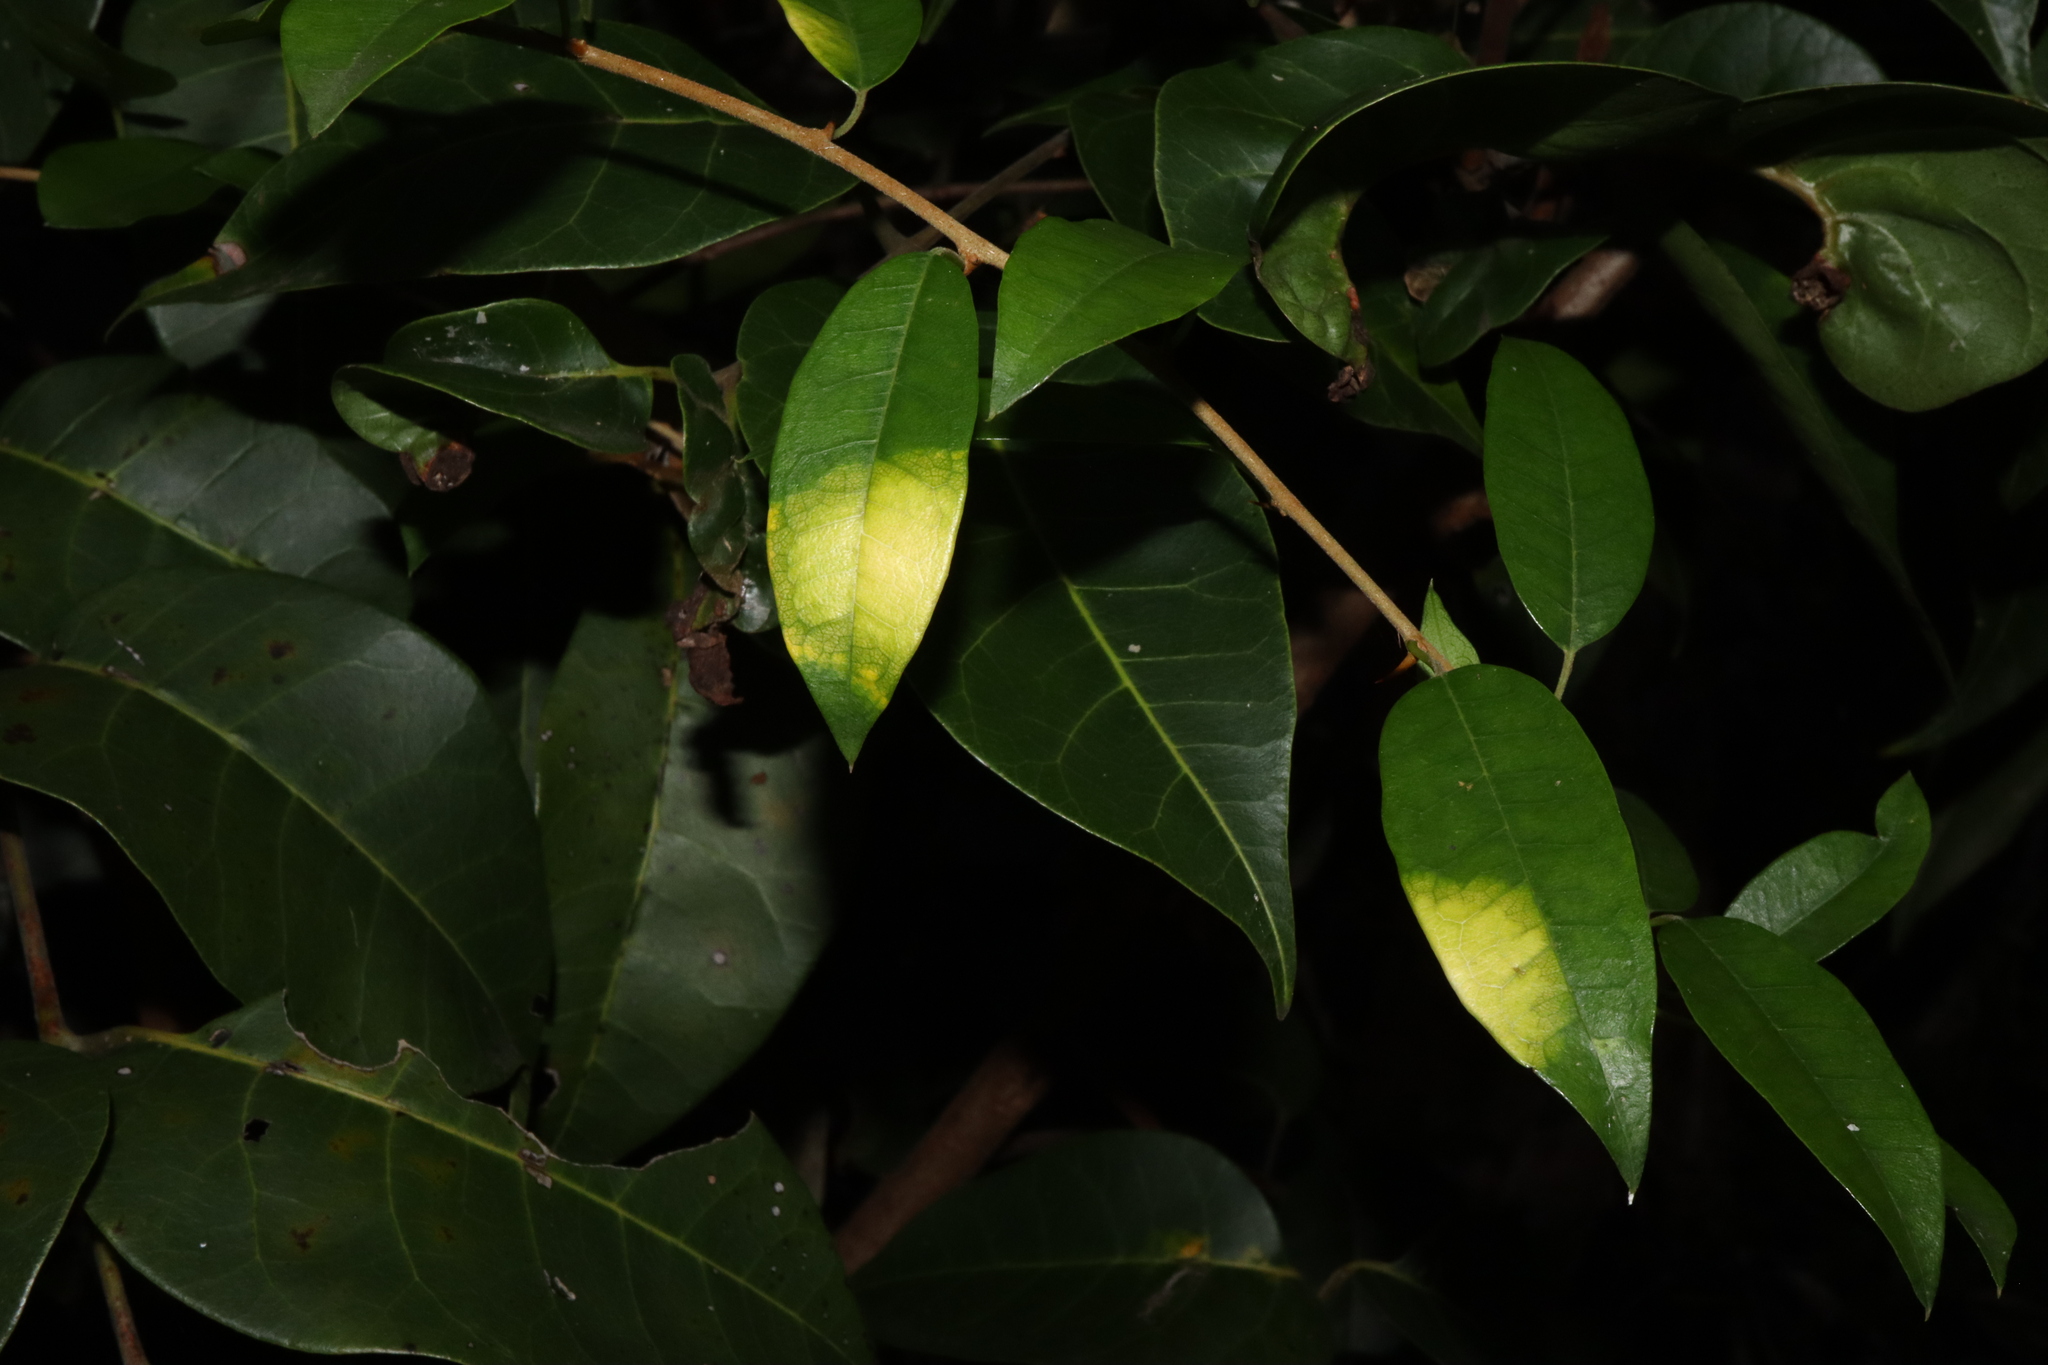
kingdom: Fungi
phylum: Ascomycota
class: Dothideomycetes
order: Mycosphaerellales
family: Mycosphaerellaceae
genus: Zasmidium
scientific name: Zasmidium macluricola
